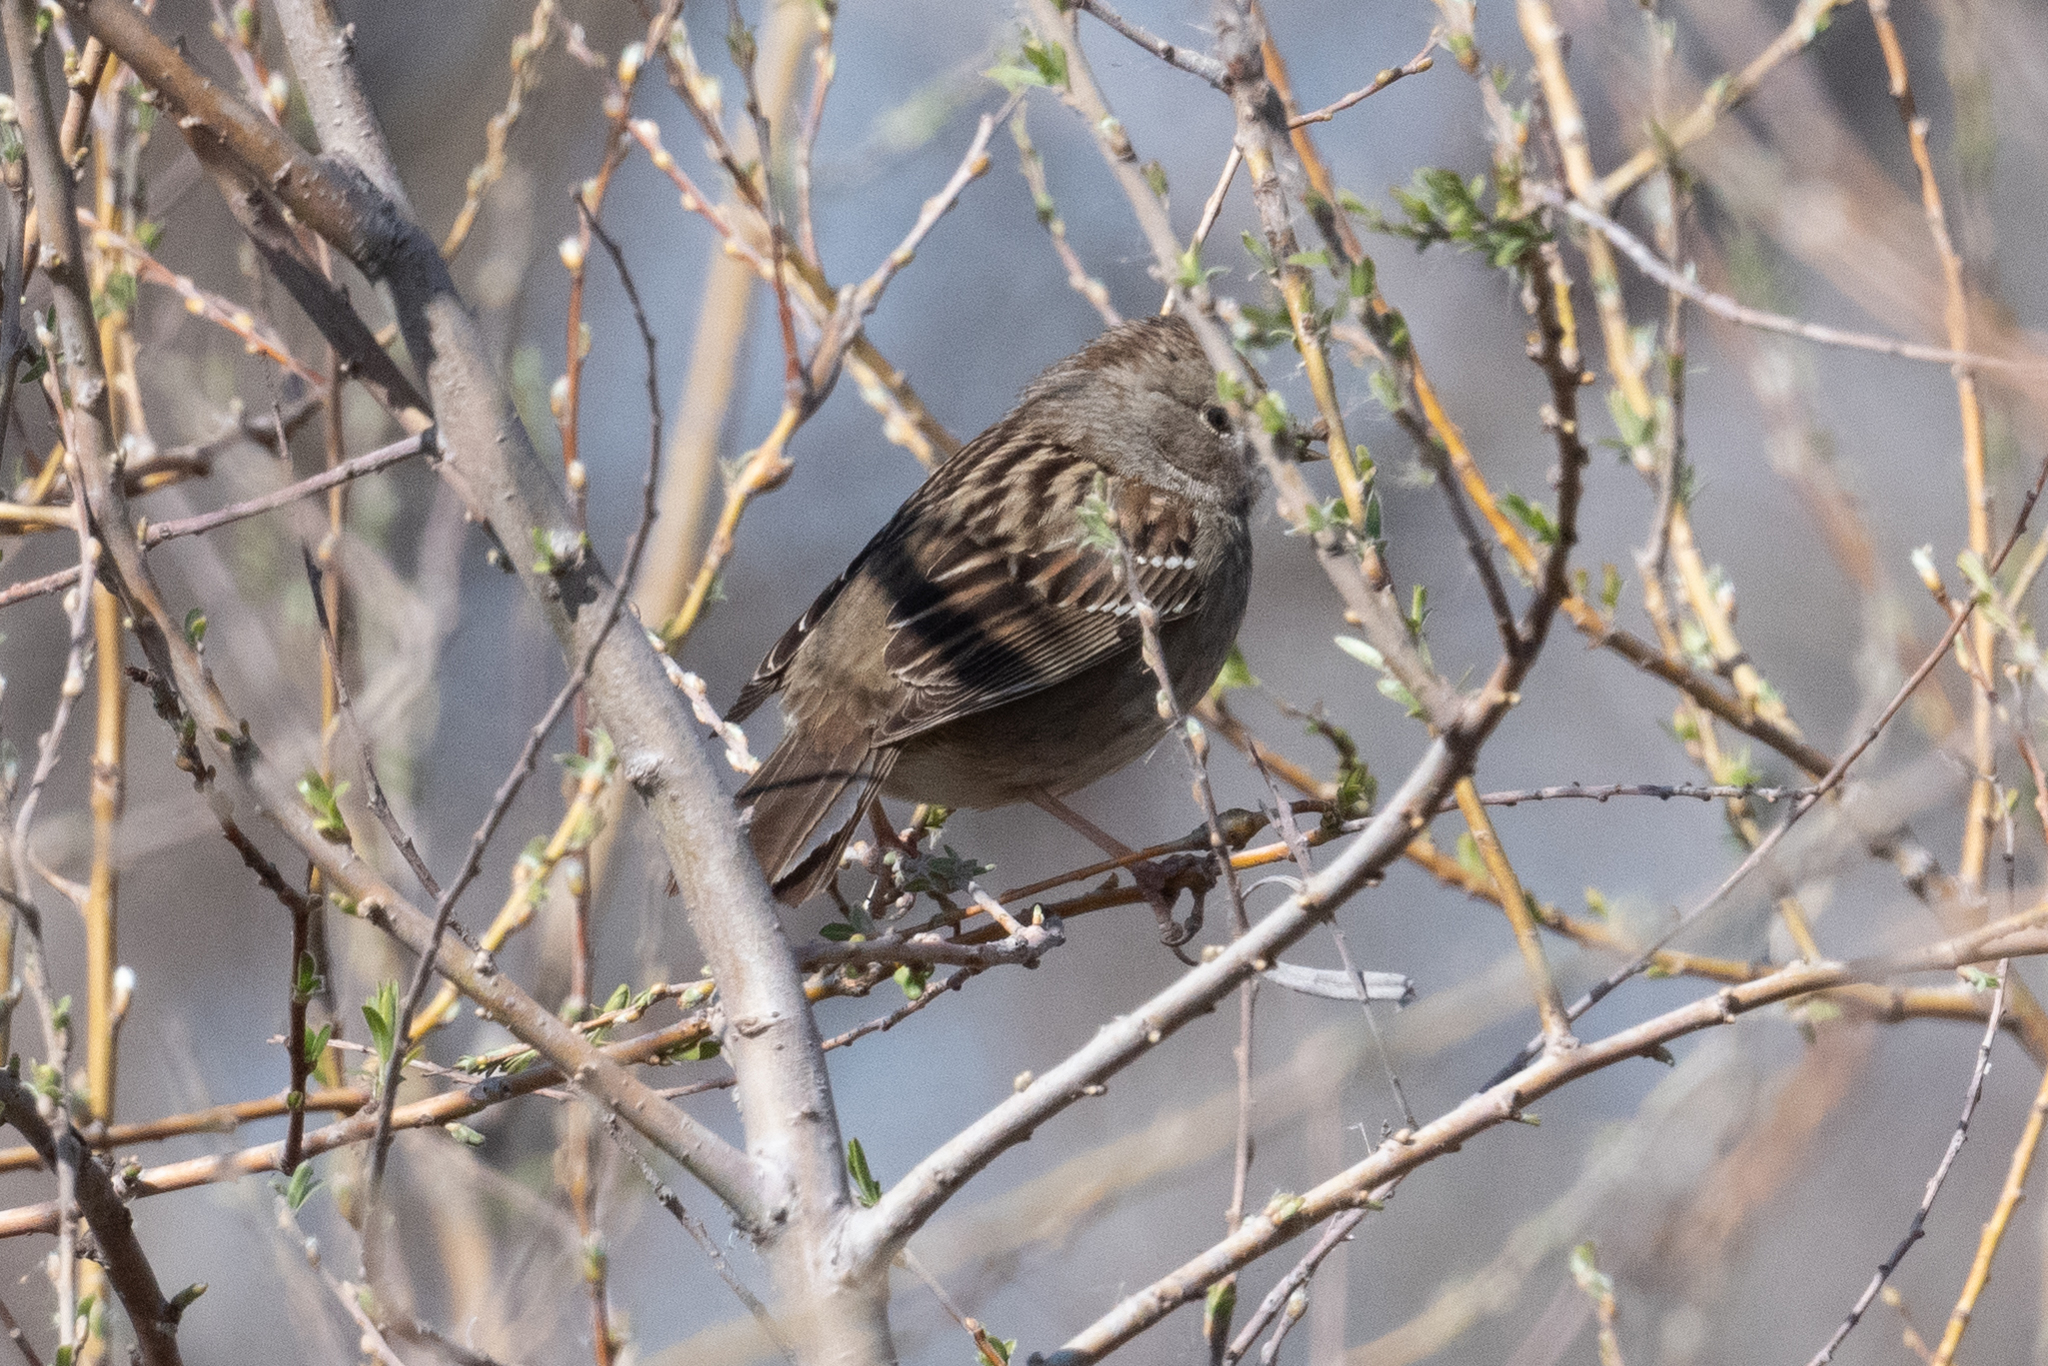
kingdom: Animalia
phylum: Chordata
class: Aves
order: Passeriformes
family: Passerellidae
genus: Zonotrichia
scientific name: Zonotrichia atricapilla
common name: Golden-crowned sparrow
